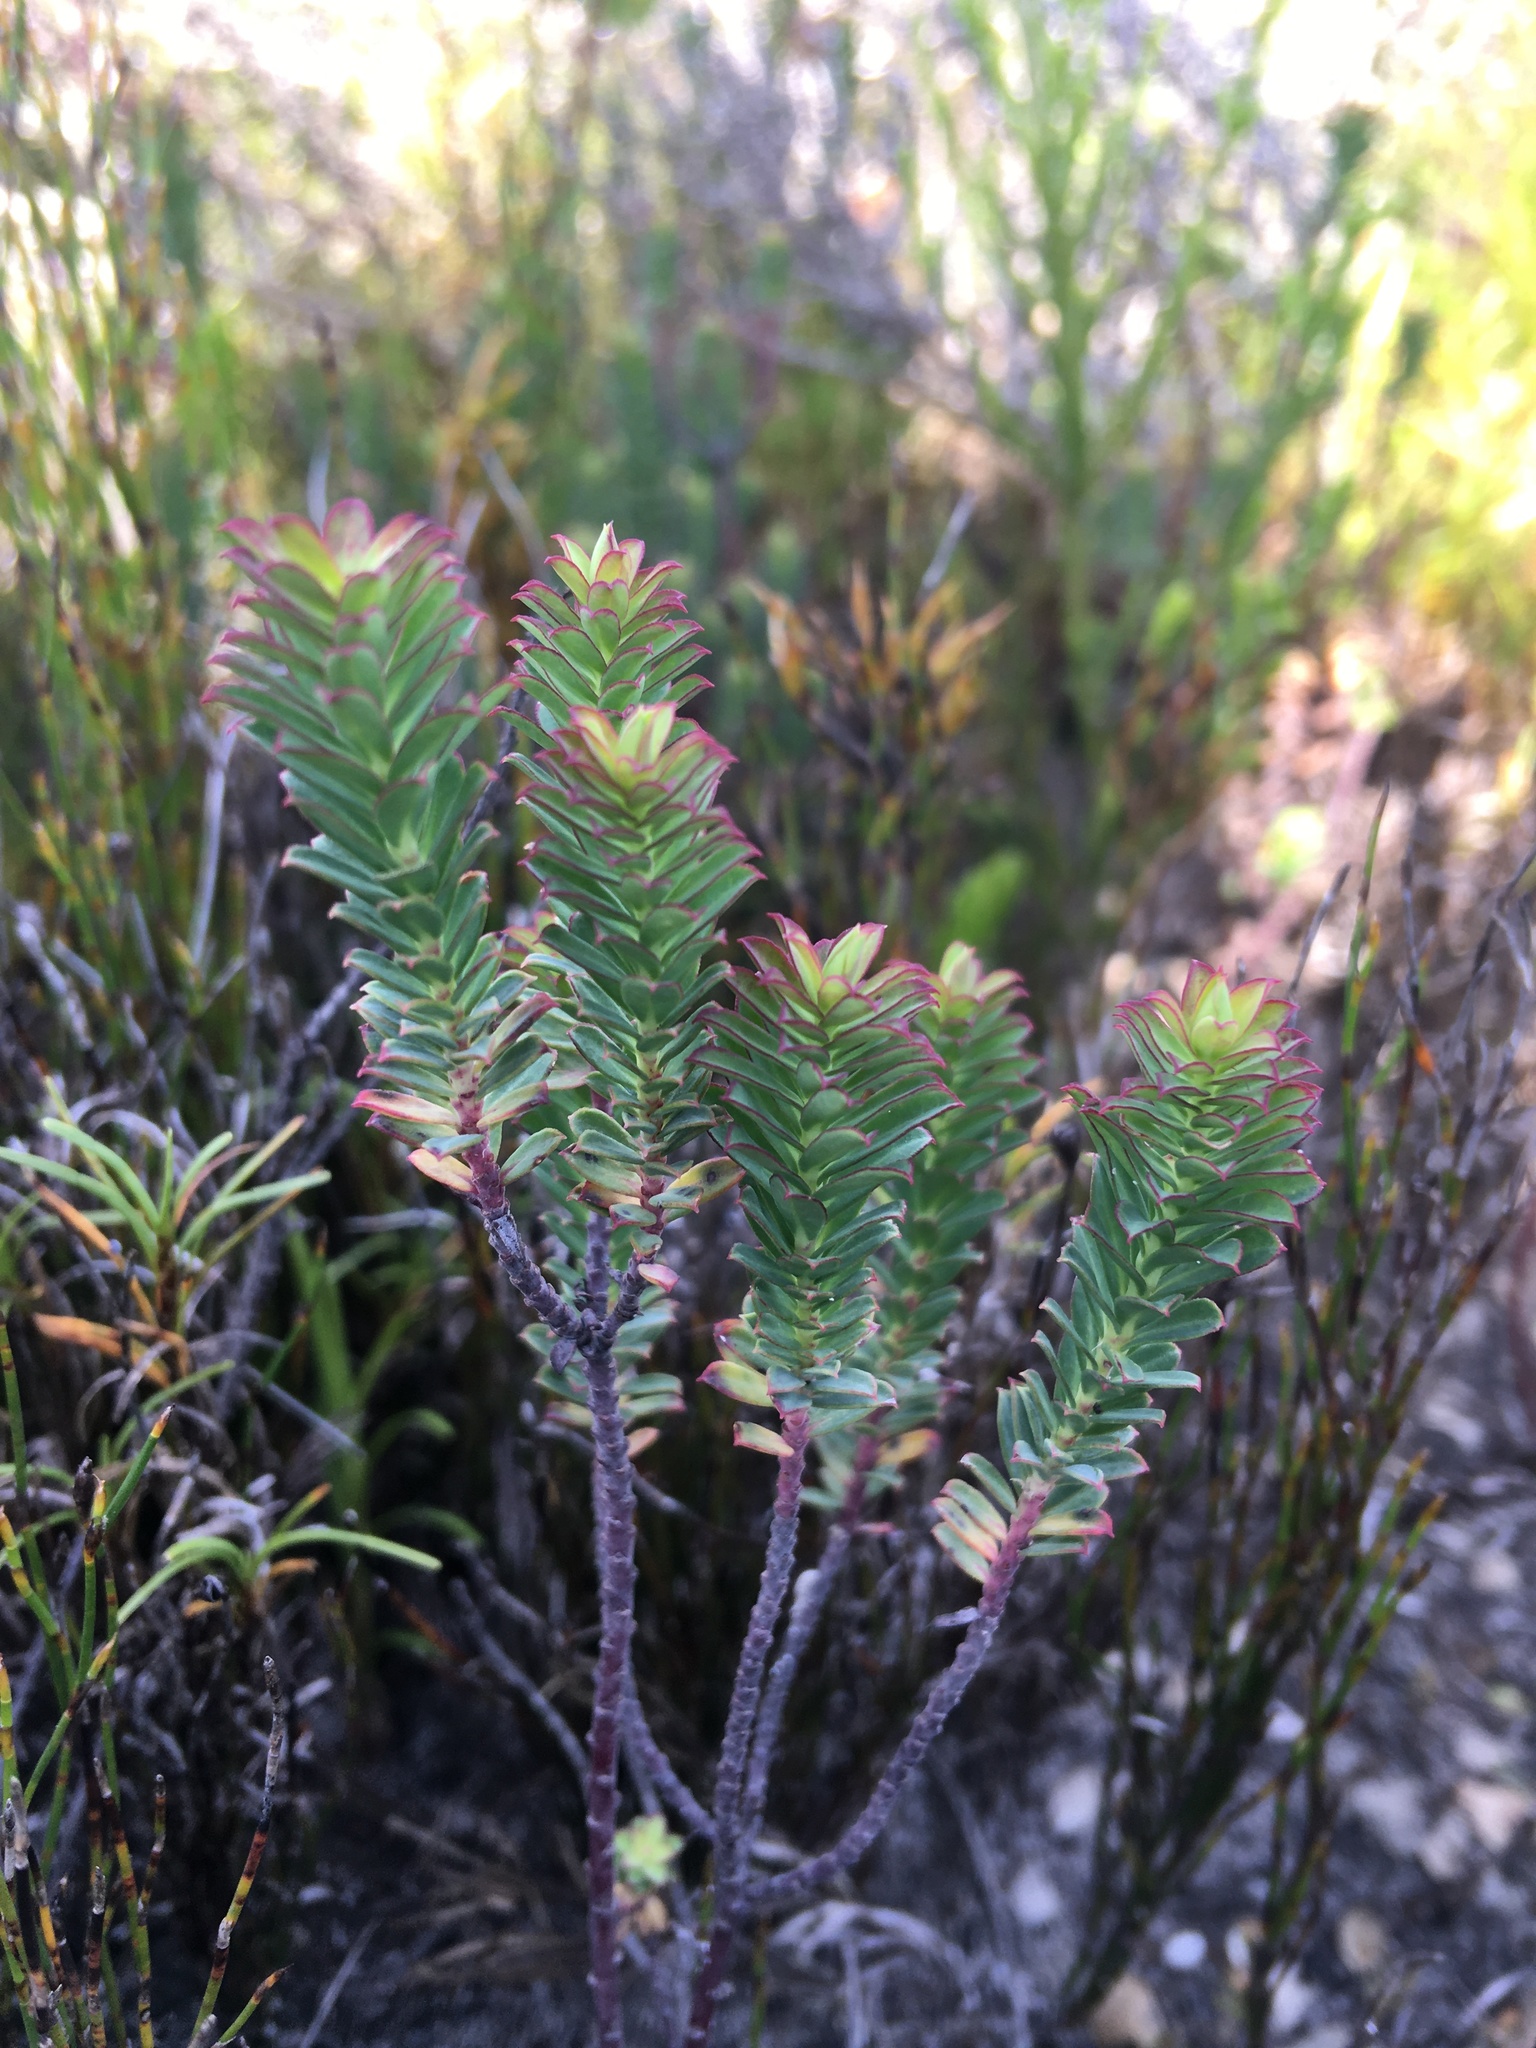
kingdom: Plantae
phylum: Tracheophyta
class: Magnoliopsida
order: Malpighiales
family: Euphorbiaceae
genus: Euphorbia
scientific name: Euphorbia genistoides
